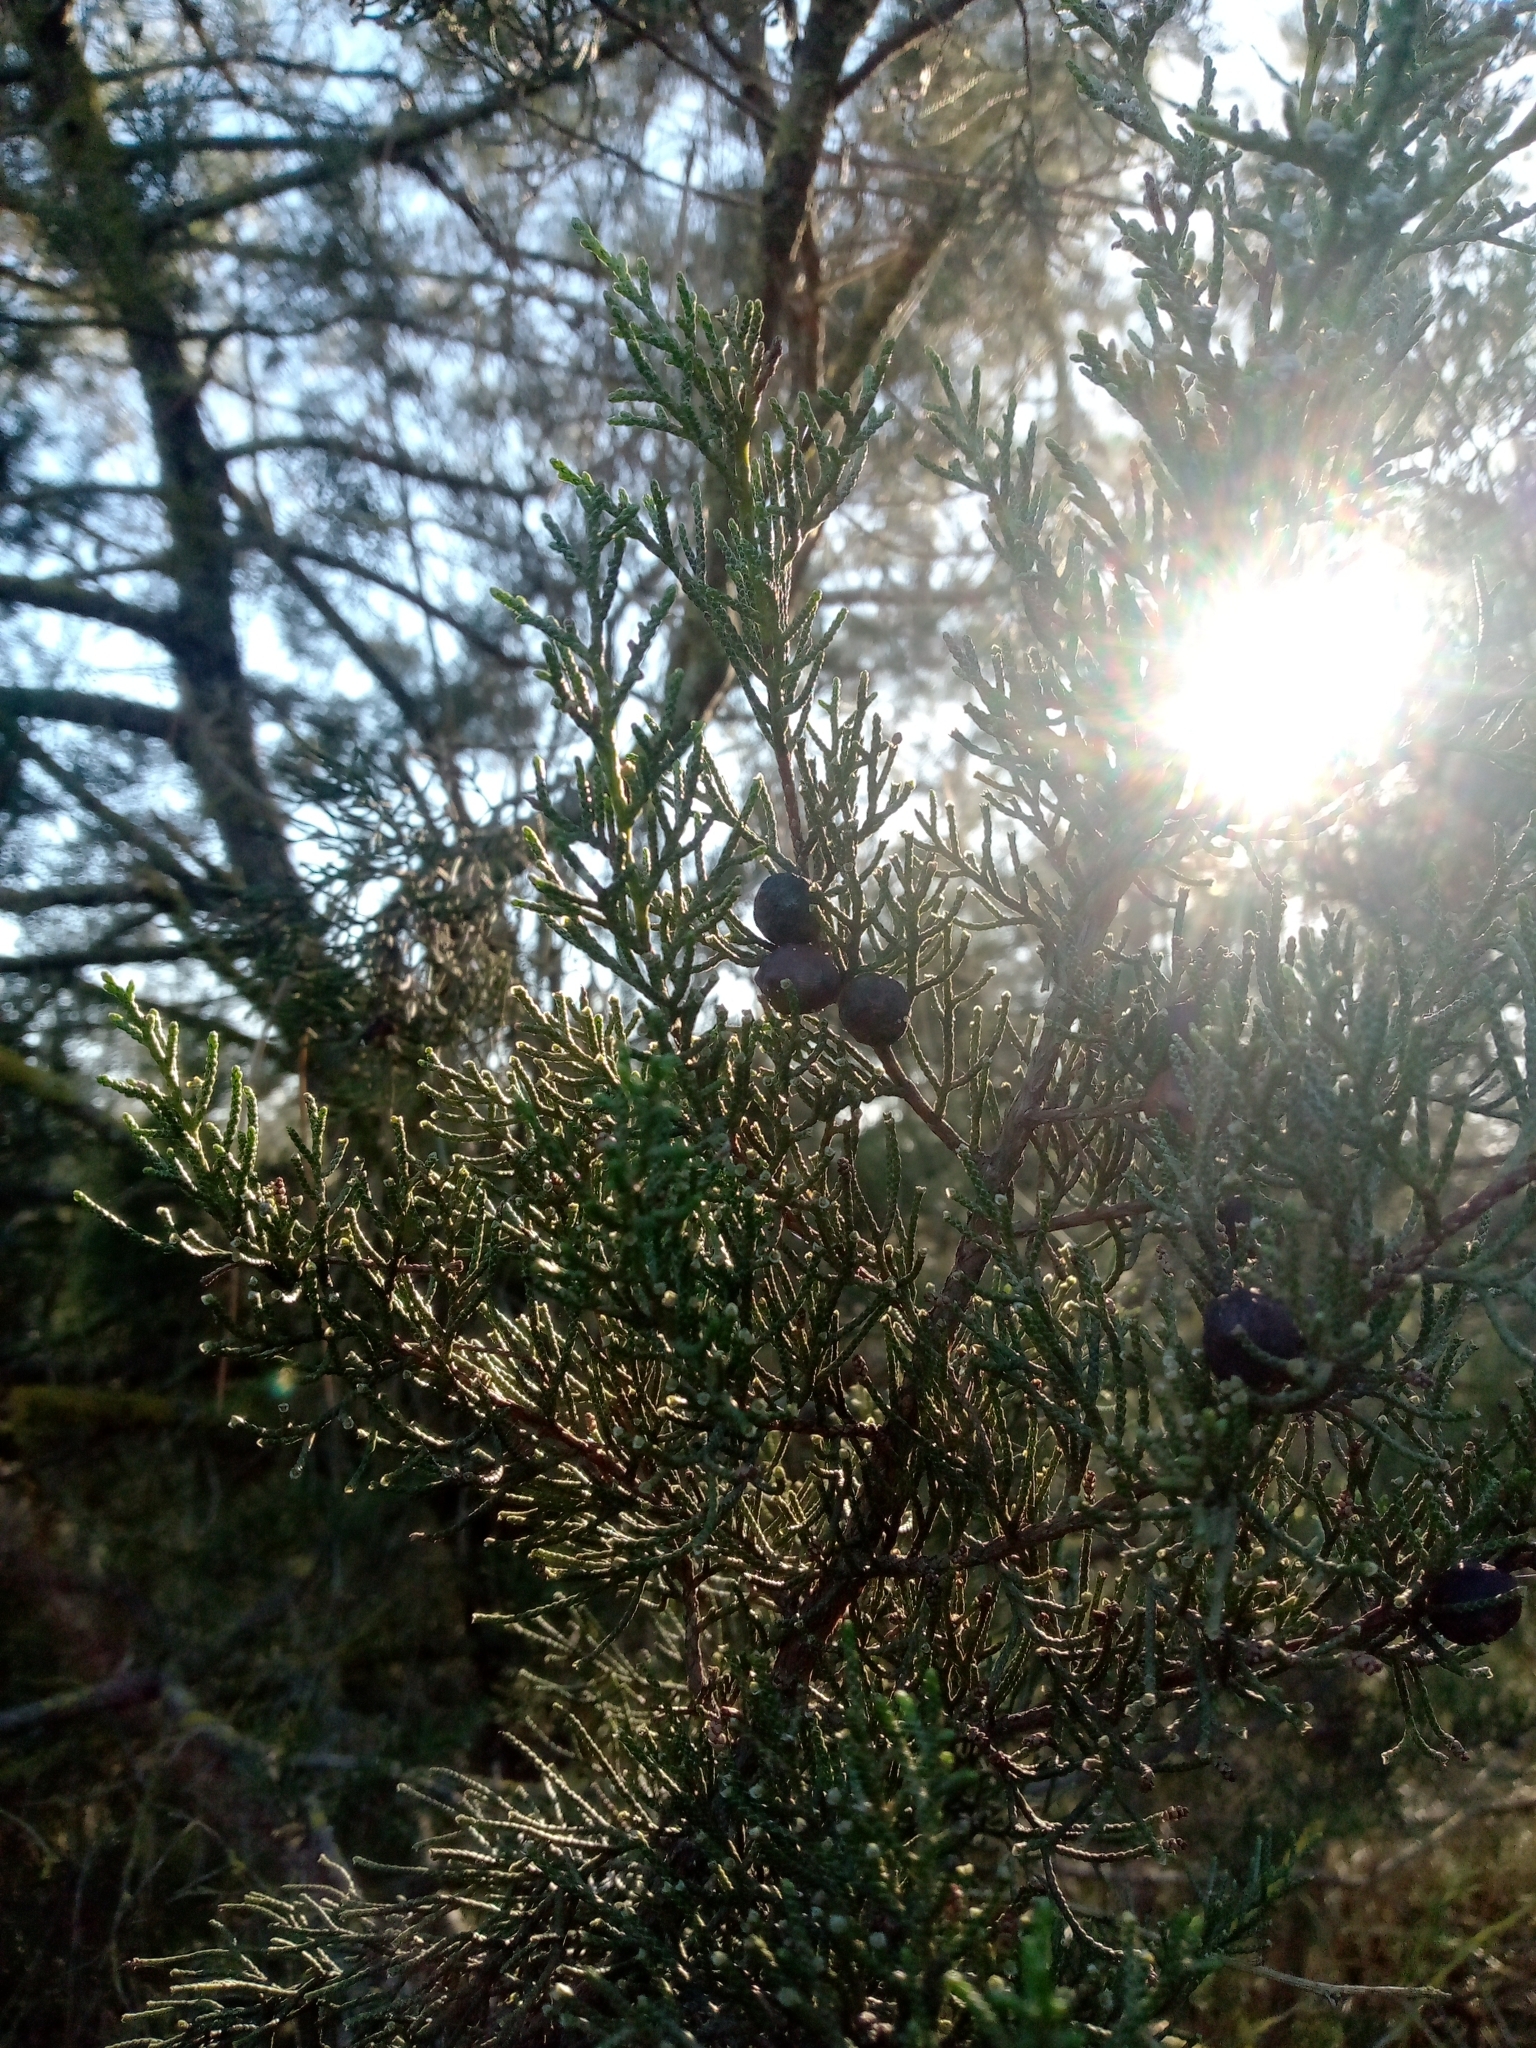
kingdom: Plantae
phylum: Tracheophyta
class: Pinopsida
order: Pinales
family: Cupressaceae
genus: Juniperus
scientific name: Juniperus phoenicea
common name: Phoenician juniper
